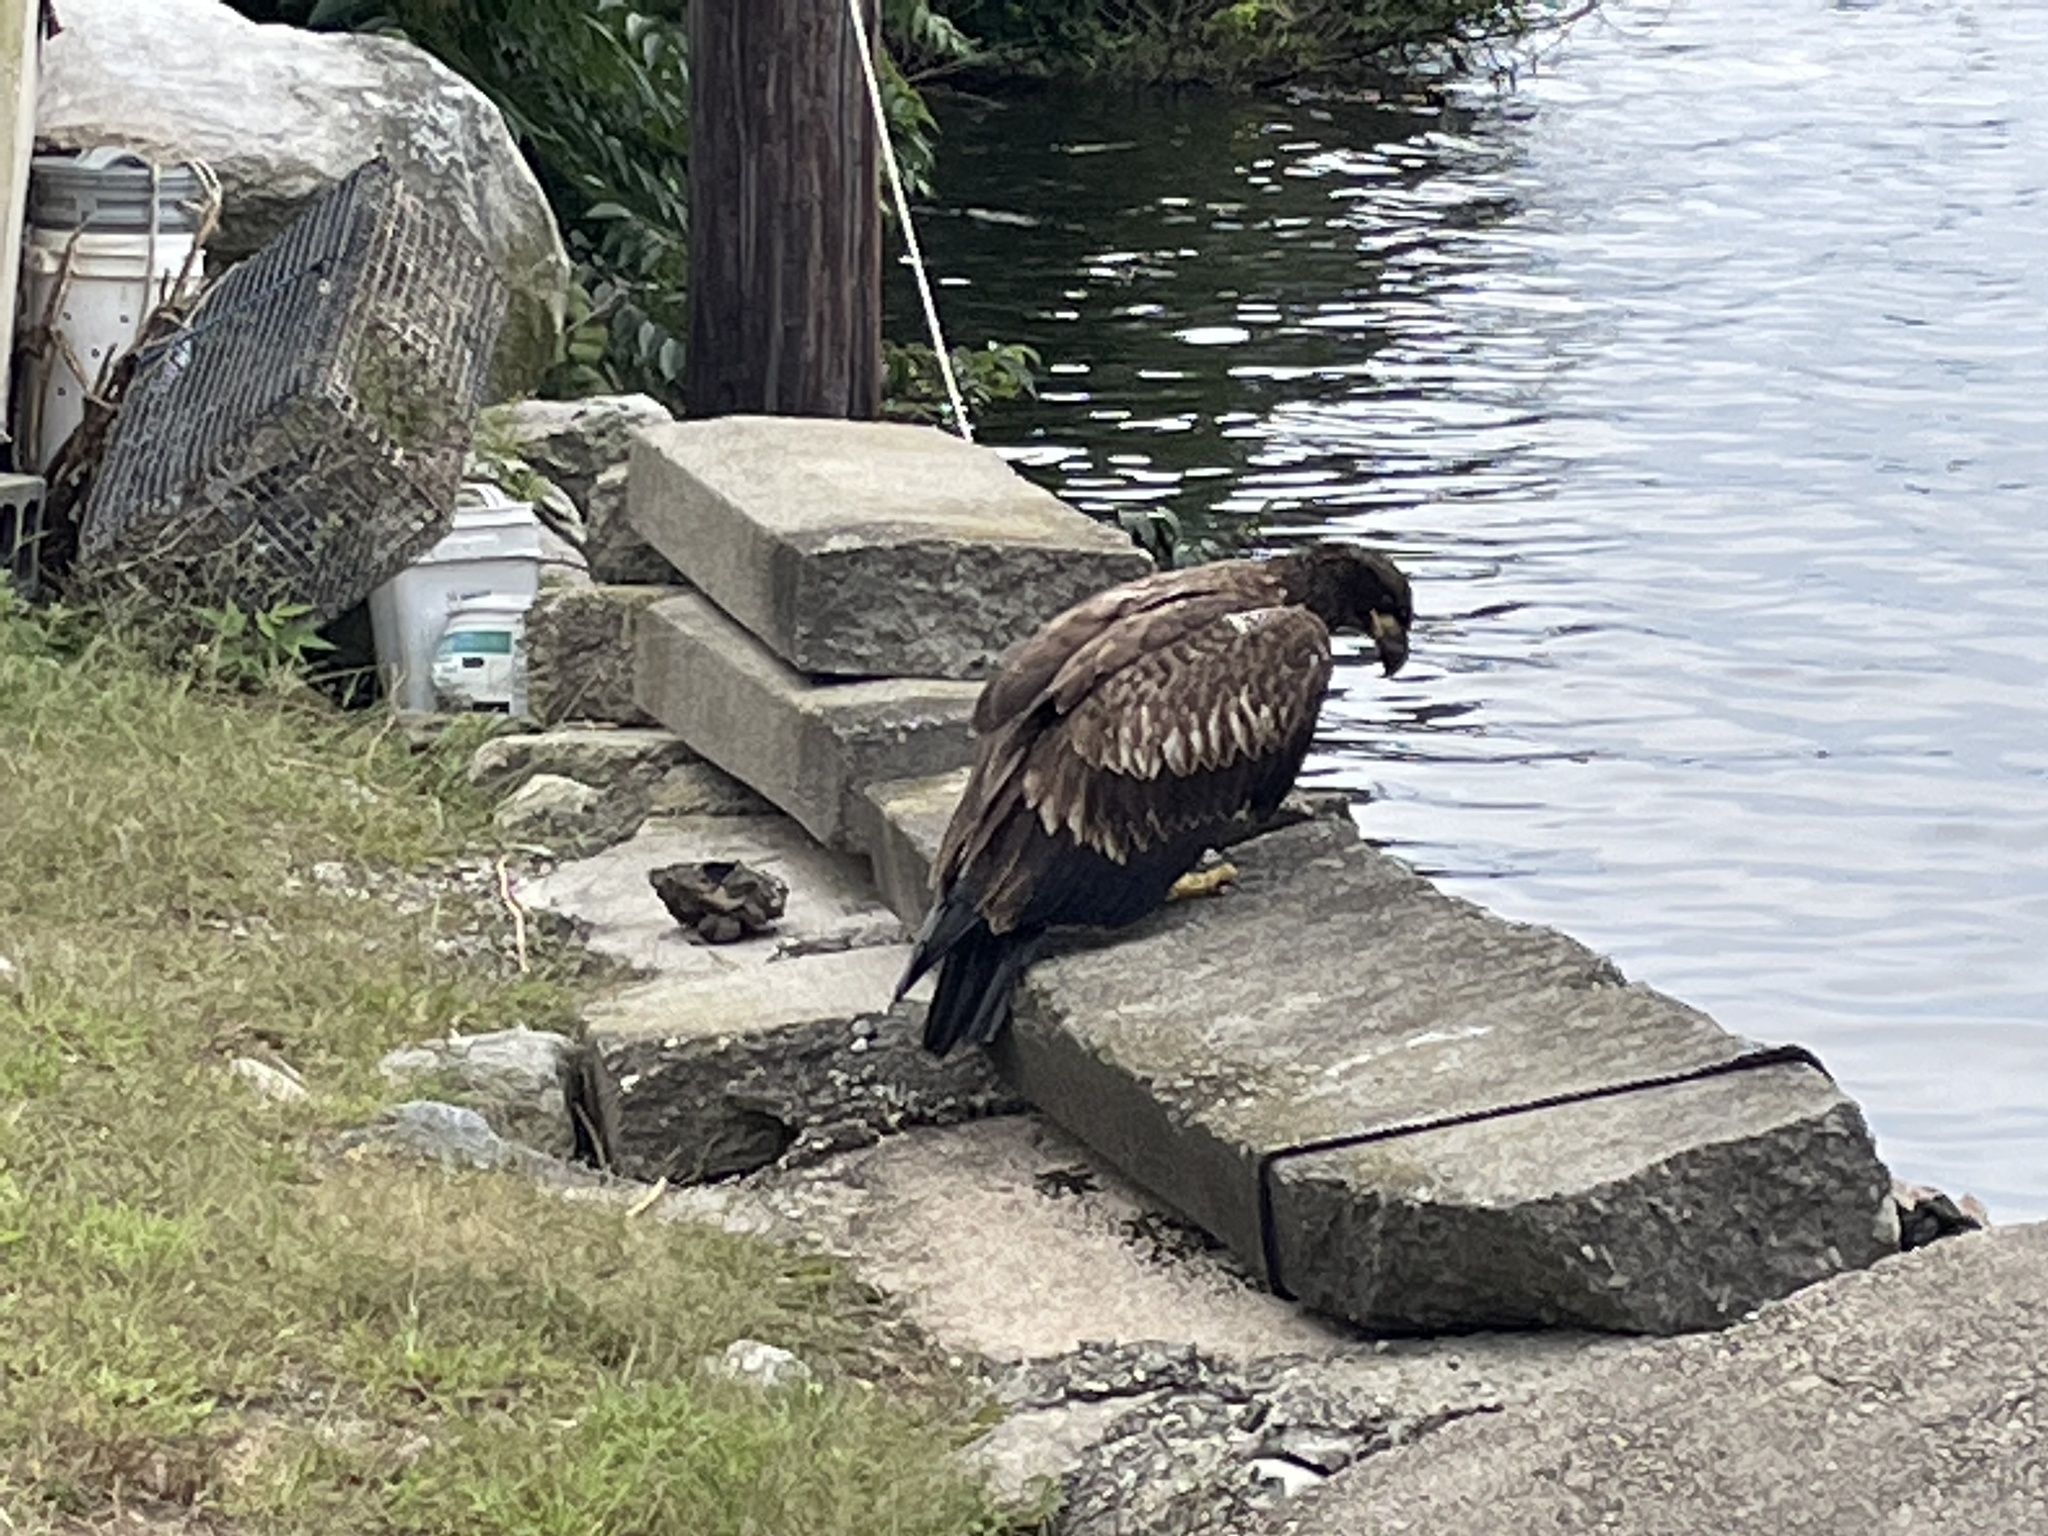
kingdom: Animalia
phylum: Chordata
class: Aves
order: Accipitriformes
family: Accipitridae
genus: Haliaeetus
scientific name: Haliaeetus leucocephalus
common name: Bald eagle
